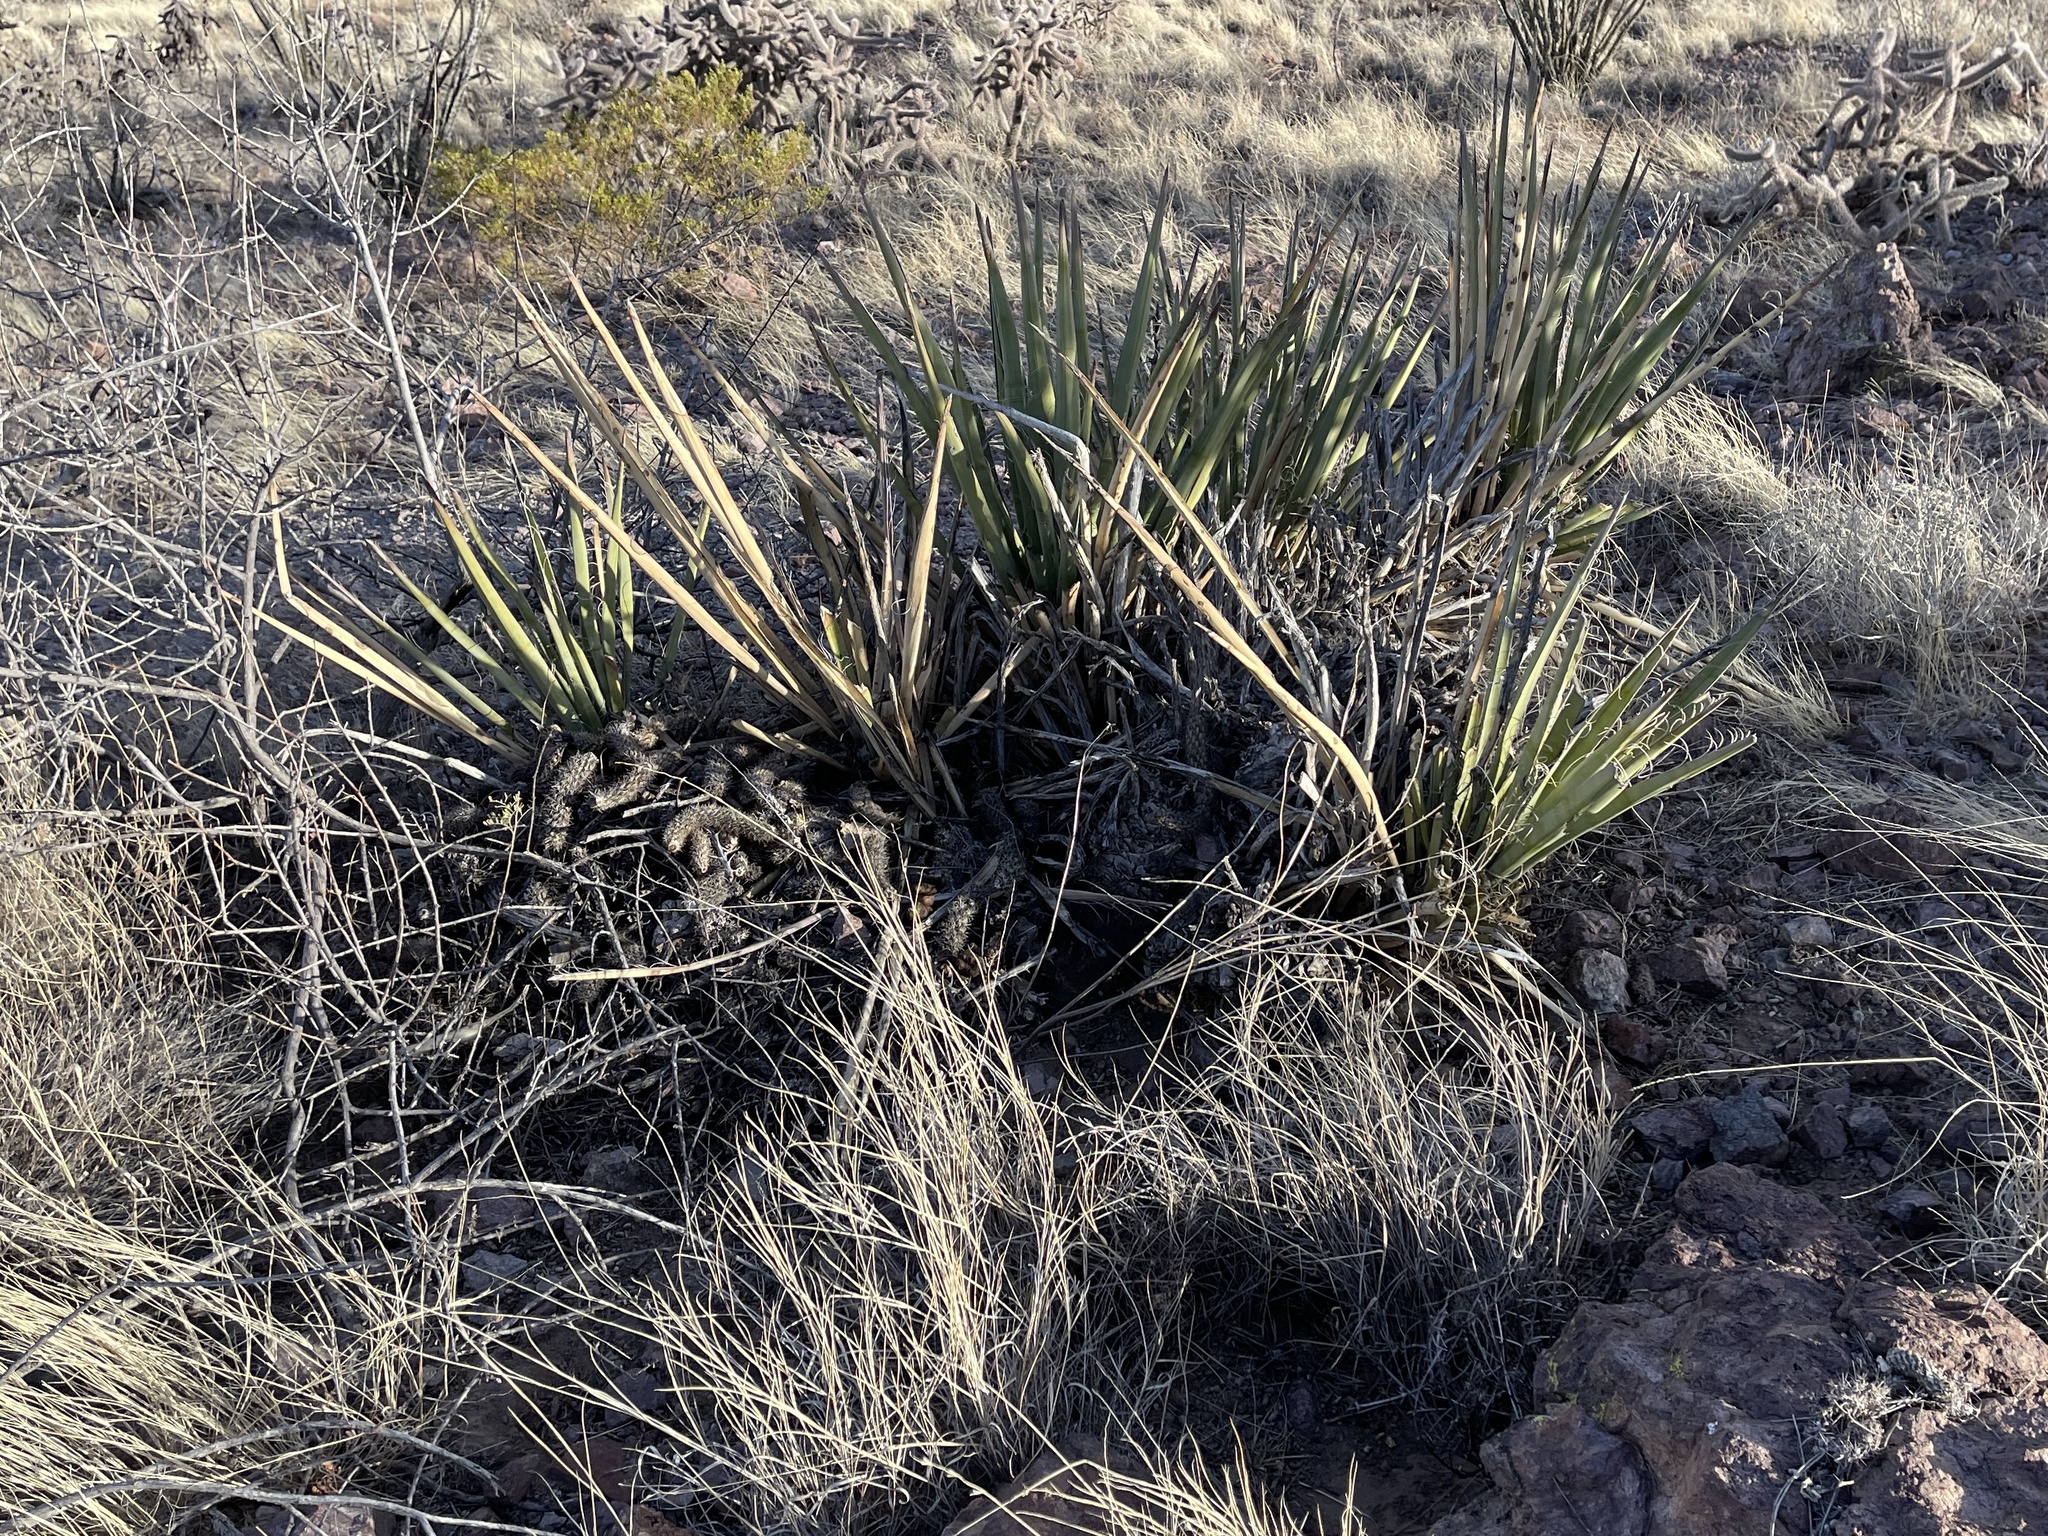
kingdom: Plantae
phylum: Tracheophyta
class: Liliopsida
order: Asparagales
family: Asparagaceae
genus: Yucca
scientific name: Yucca baccata
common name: Banana yucca
